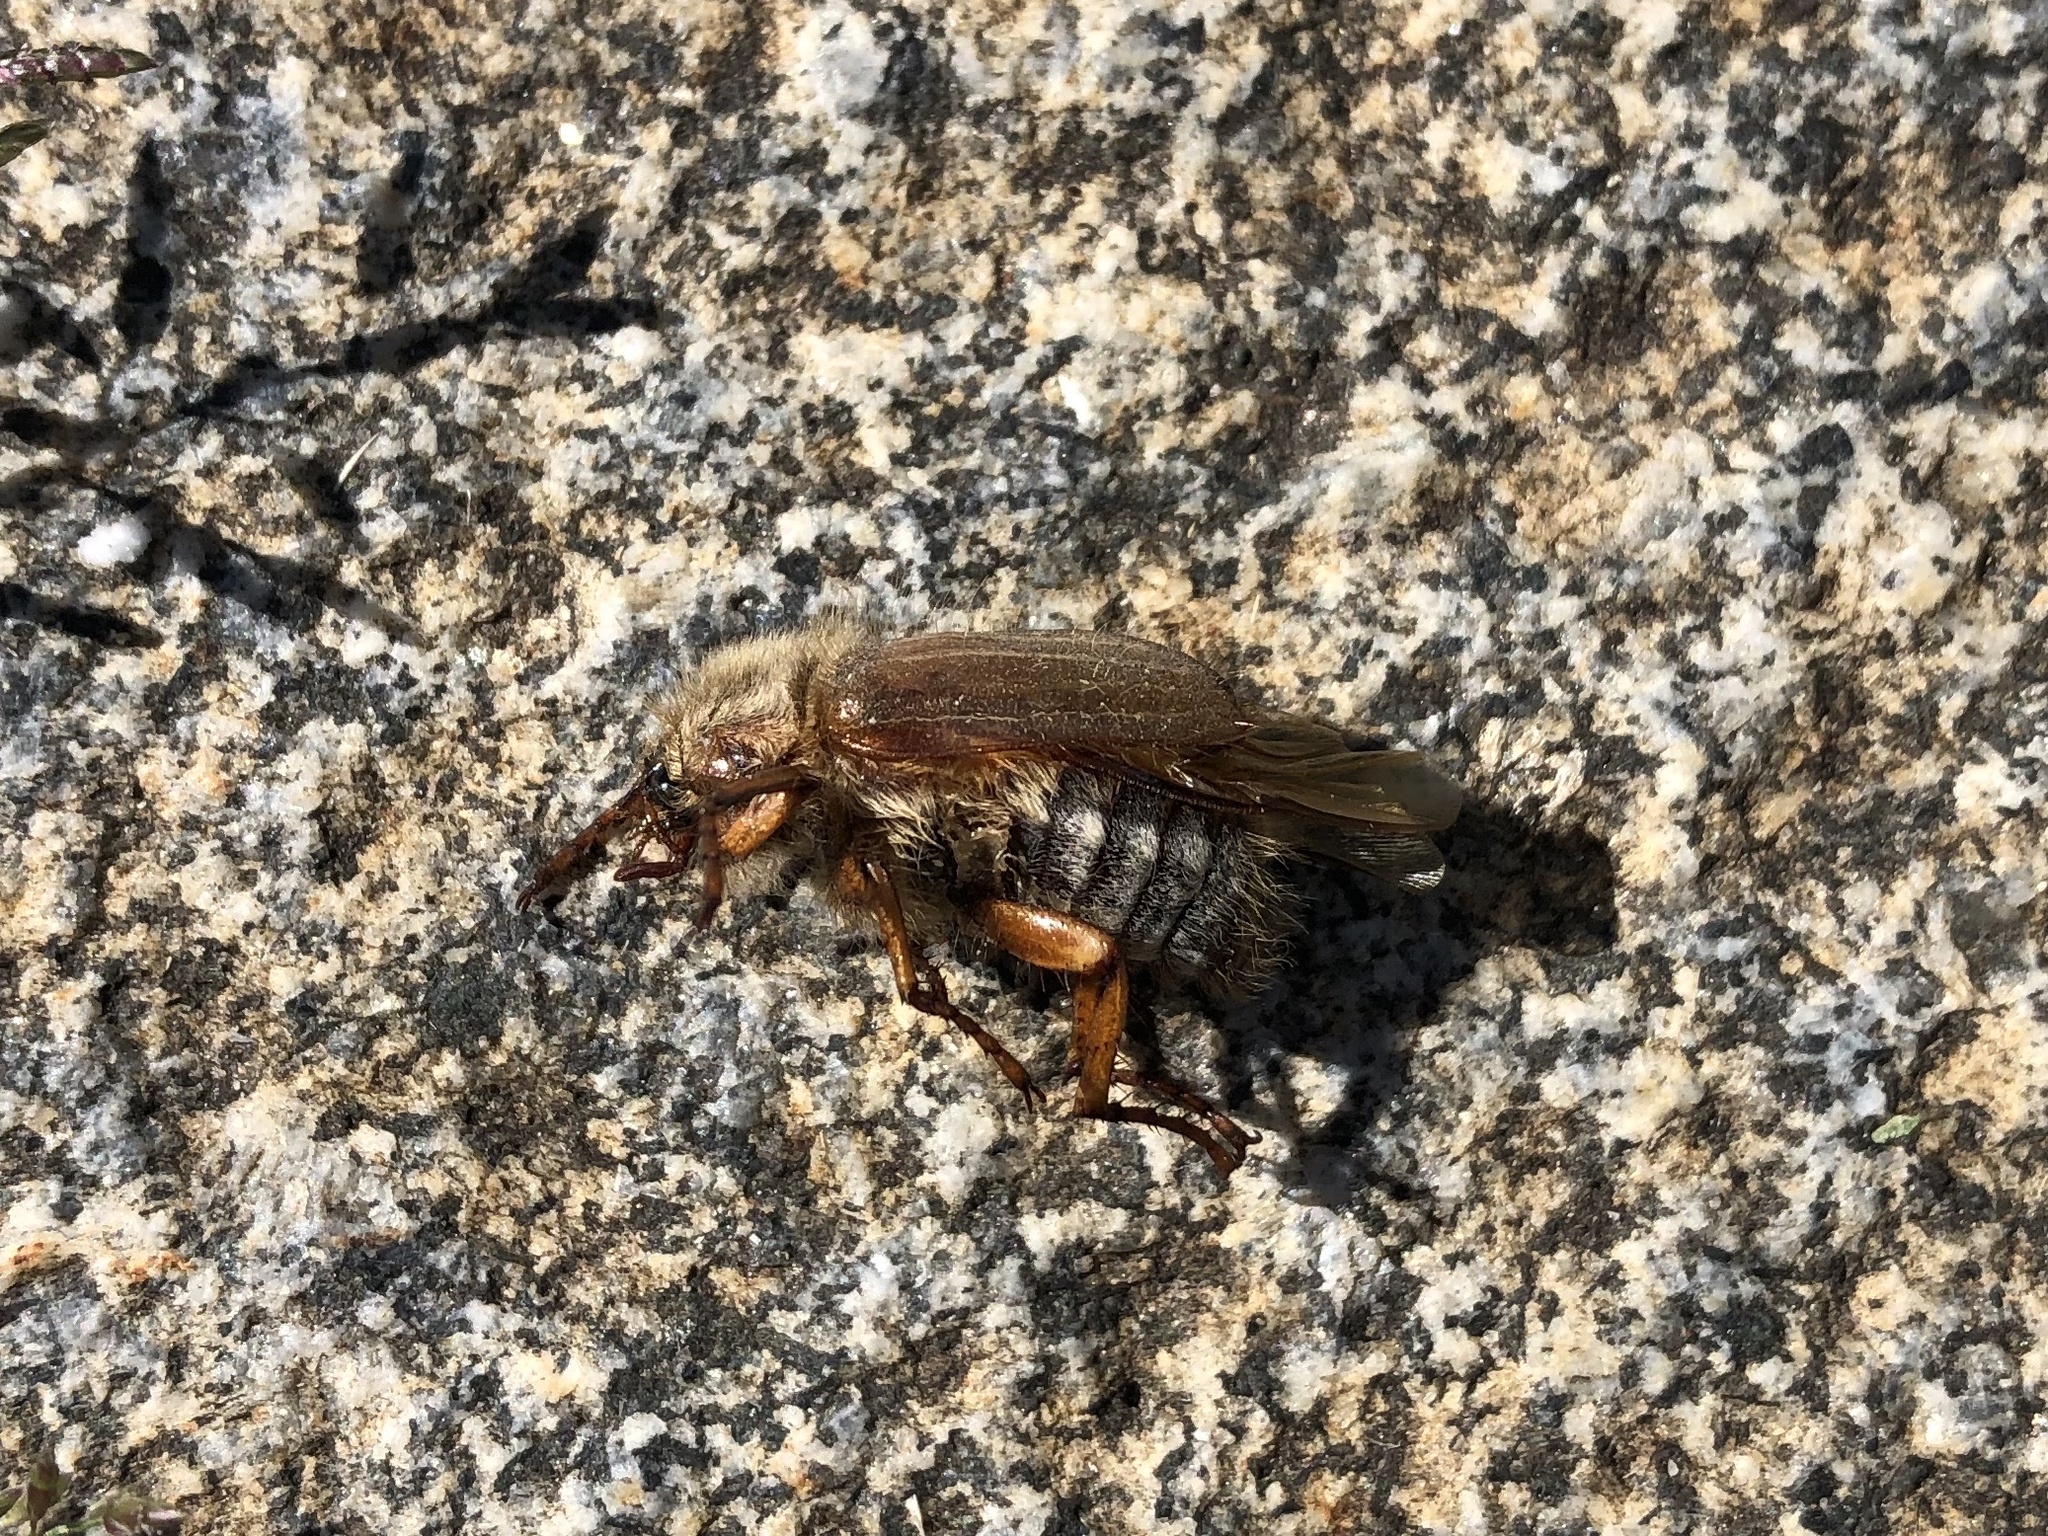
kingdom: Animalia
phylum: Arthropoda
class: Insecta
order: Coleoptera
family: Scarabaeidae
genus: Amphimallon
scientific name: Amphimallon solstitiale
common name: Summer chafer
